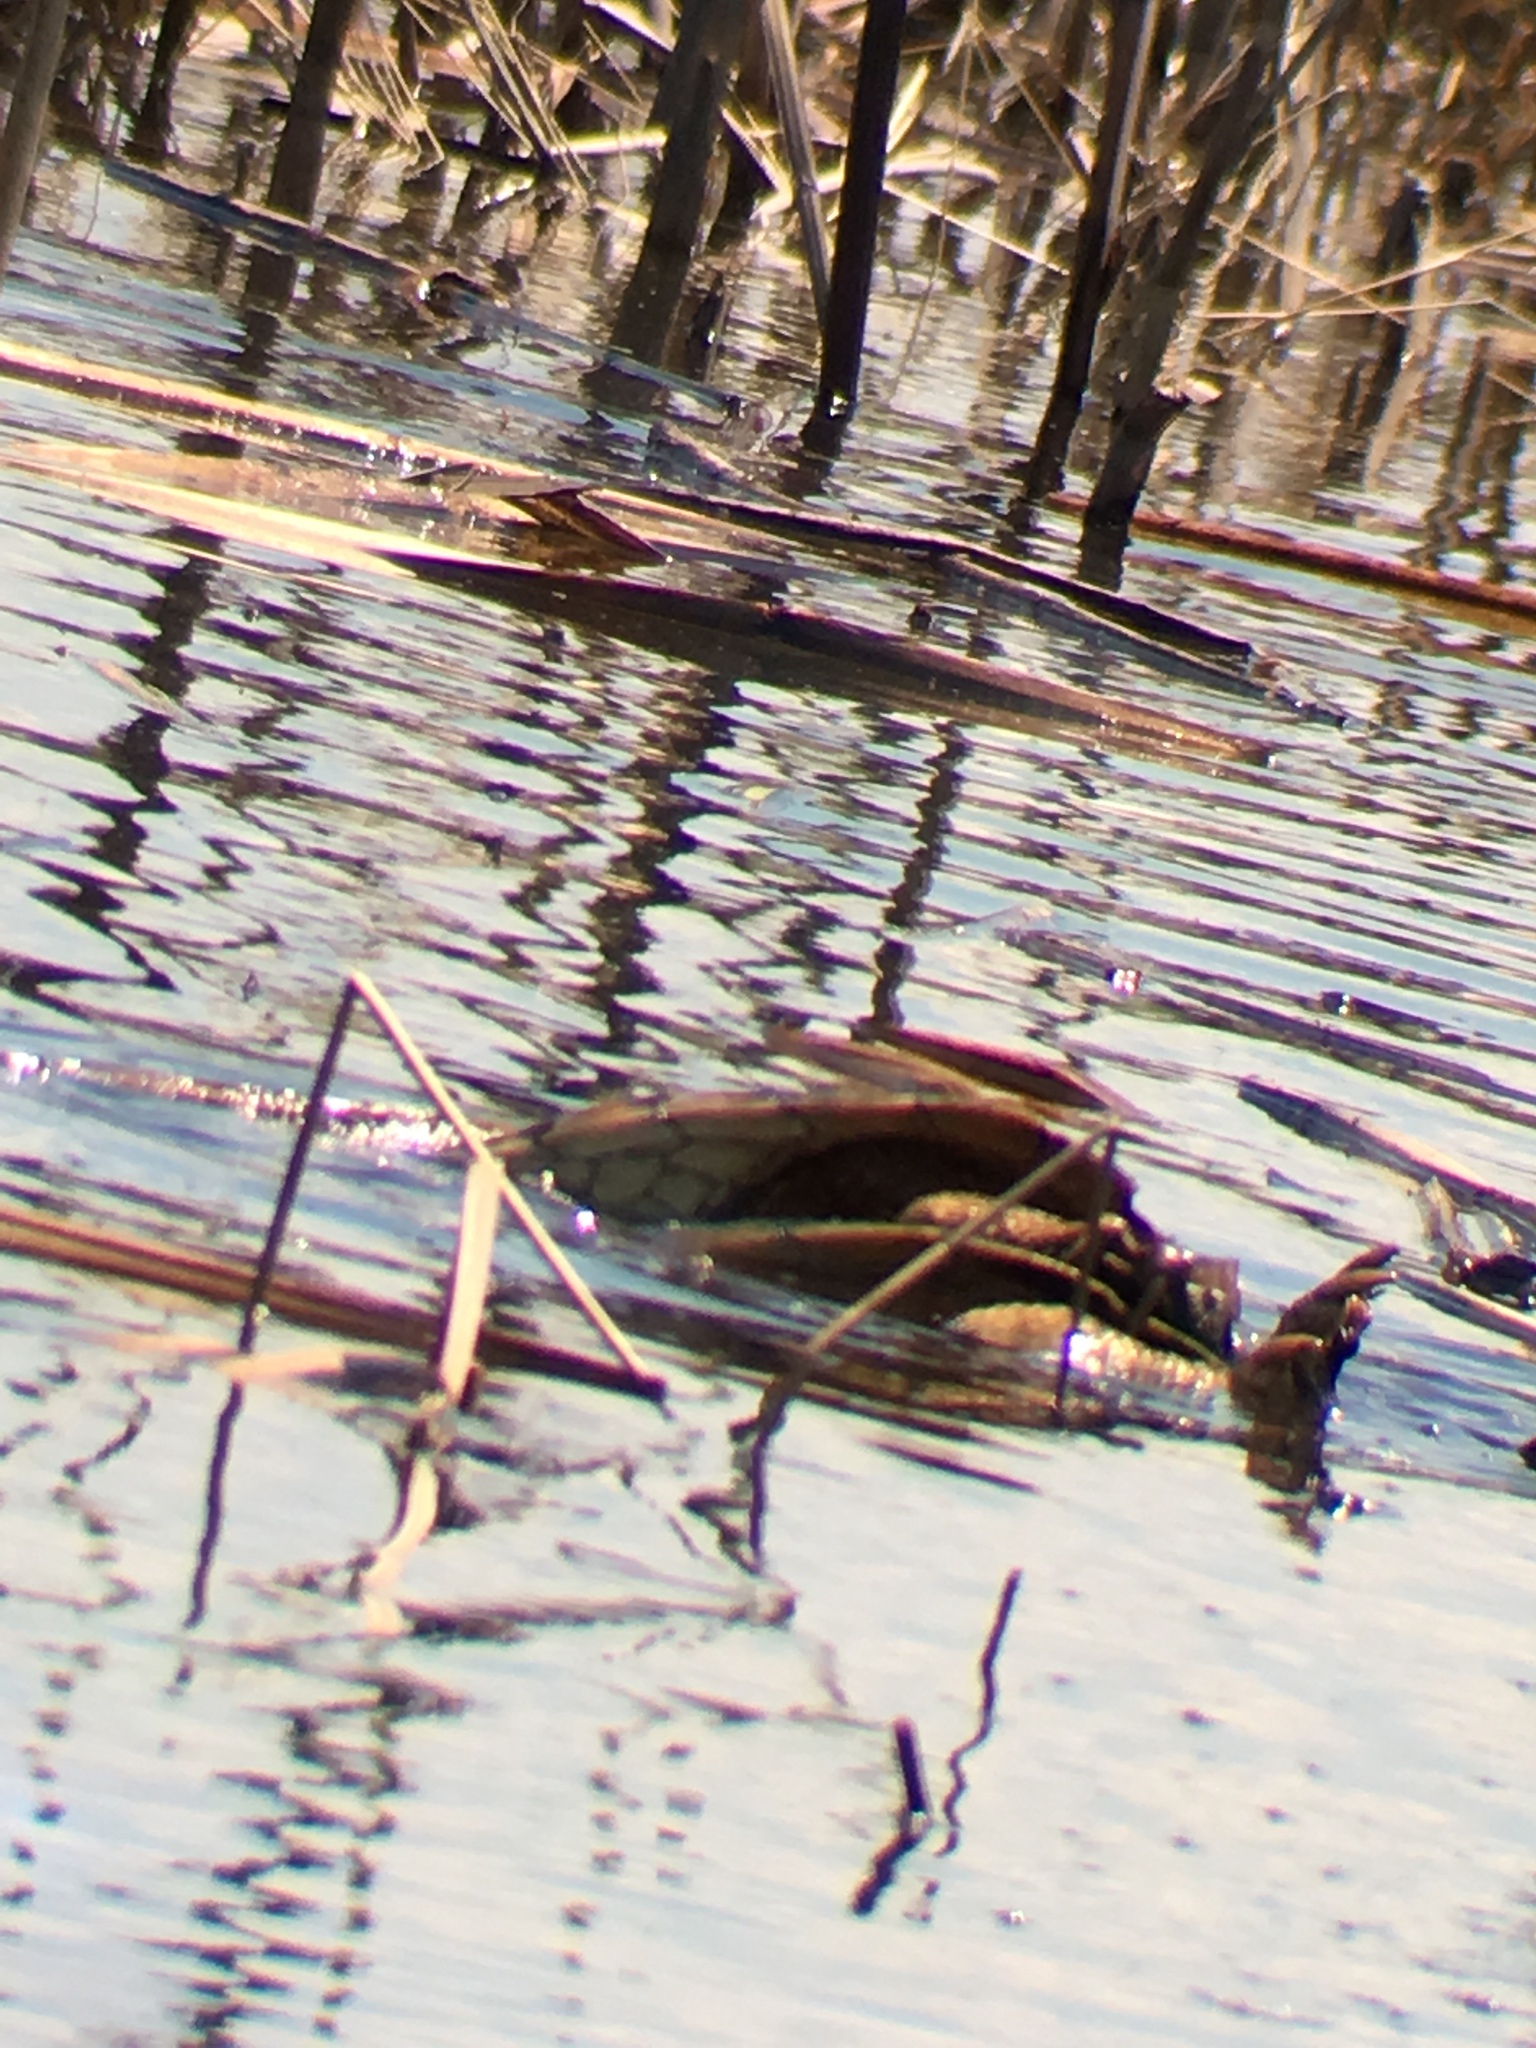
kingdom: Animalia
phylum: Chordata
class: Testudines
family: Chelydridae
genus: Chelydra
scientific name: Chelydra serpentina
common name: Common snapping turtle
